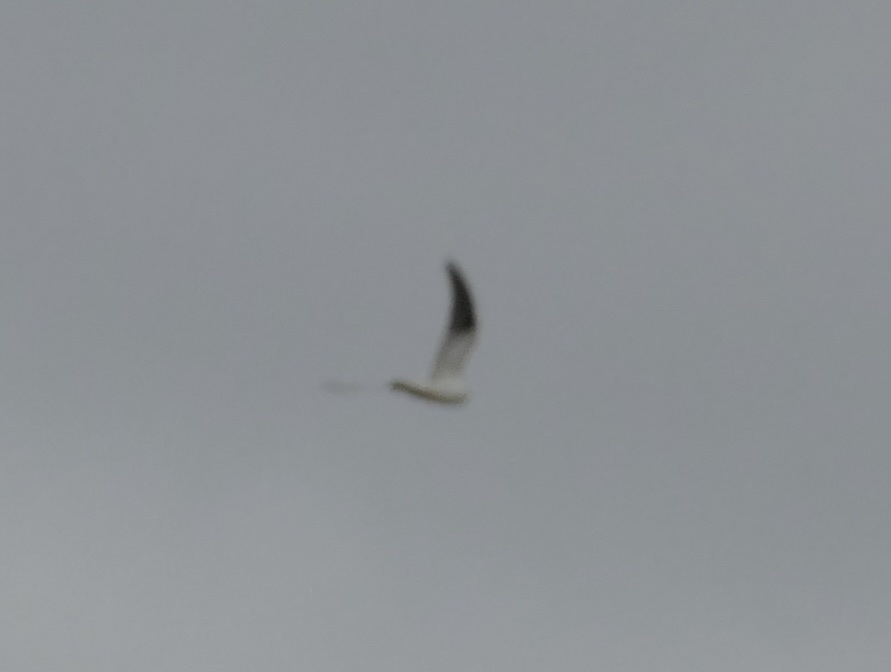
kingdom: Animalia
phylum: Chordata
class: Aves
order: Accipitriformes
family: Accipitridae
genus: Elanus
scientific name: Elanus axillaris
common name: Black-shouldered kite
